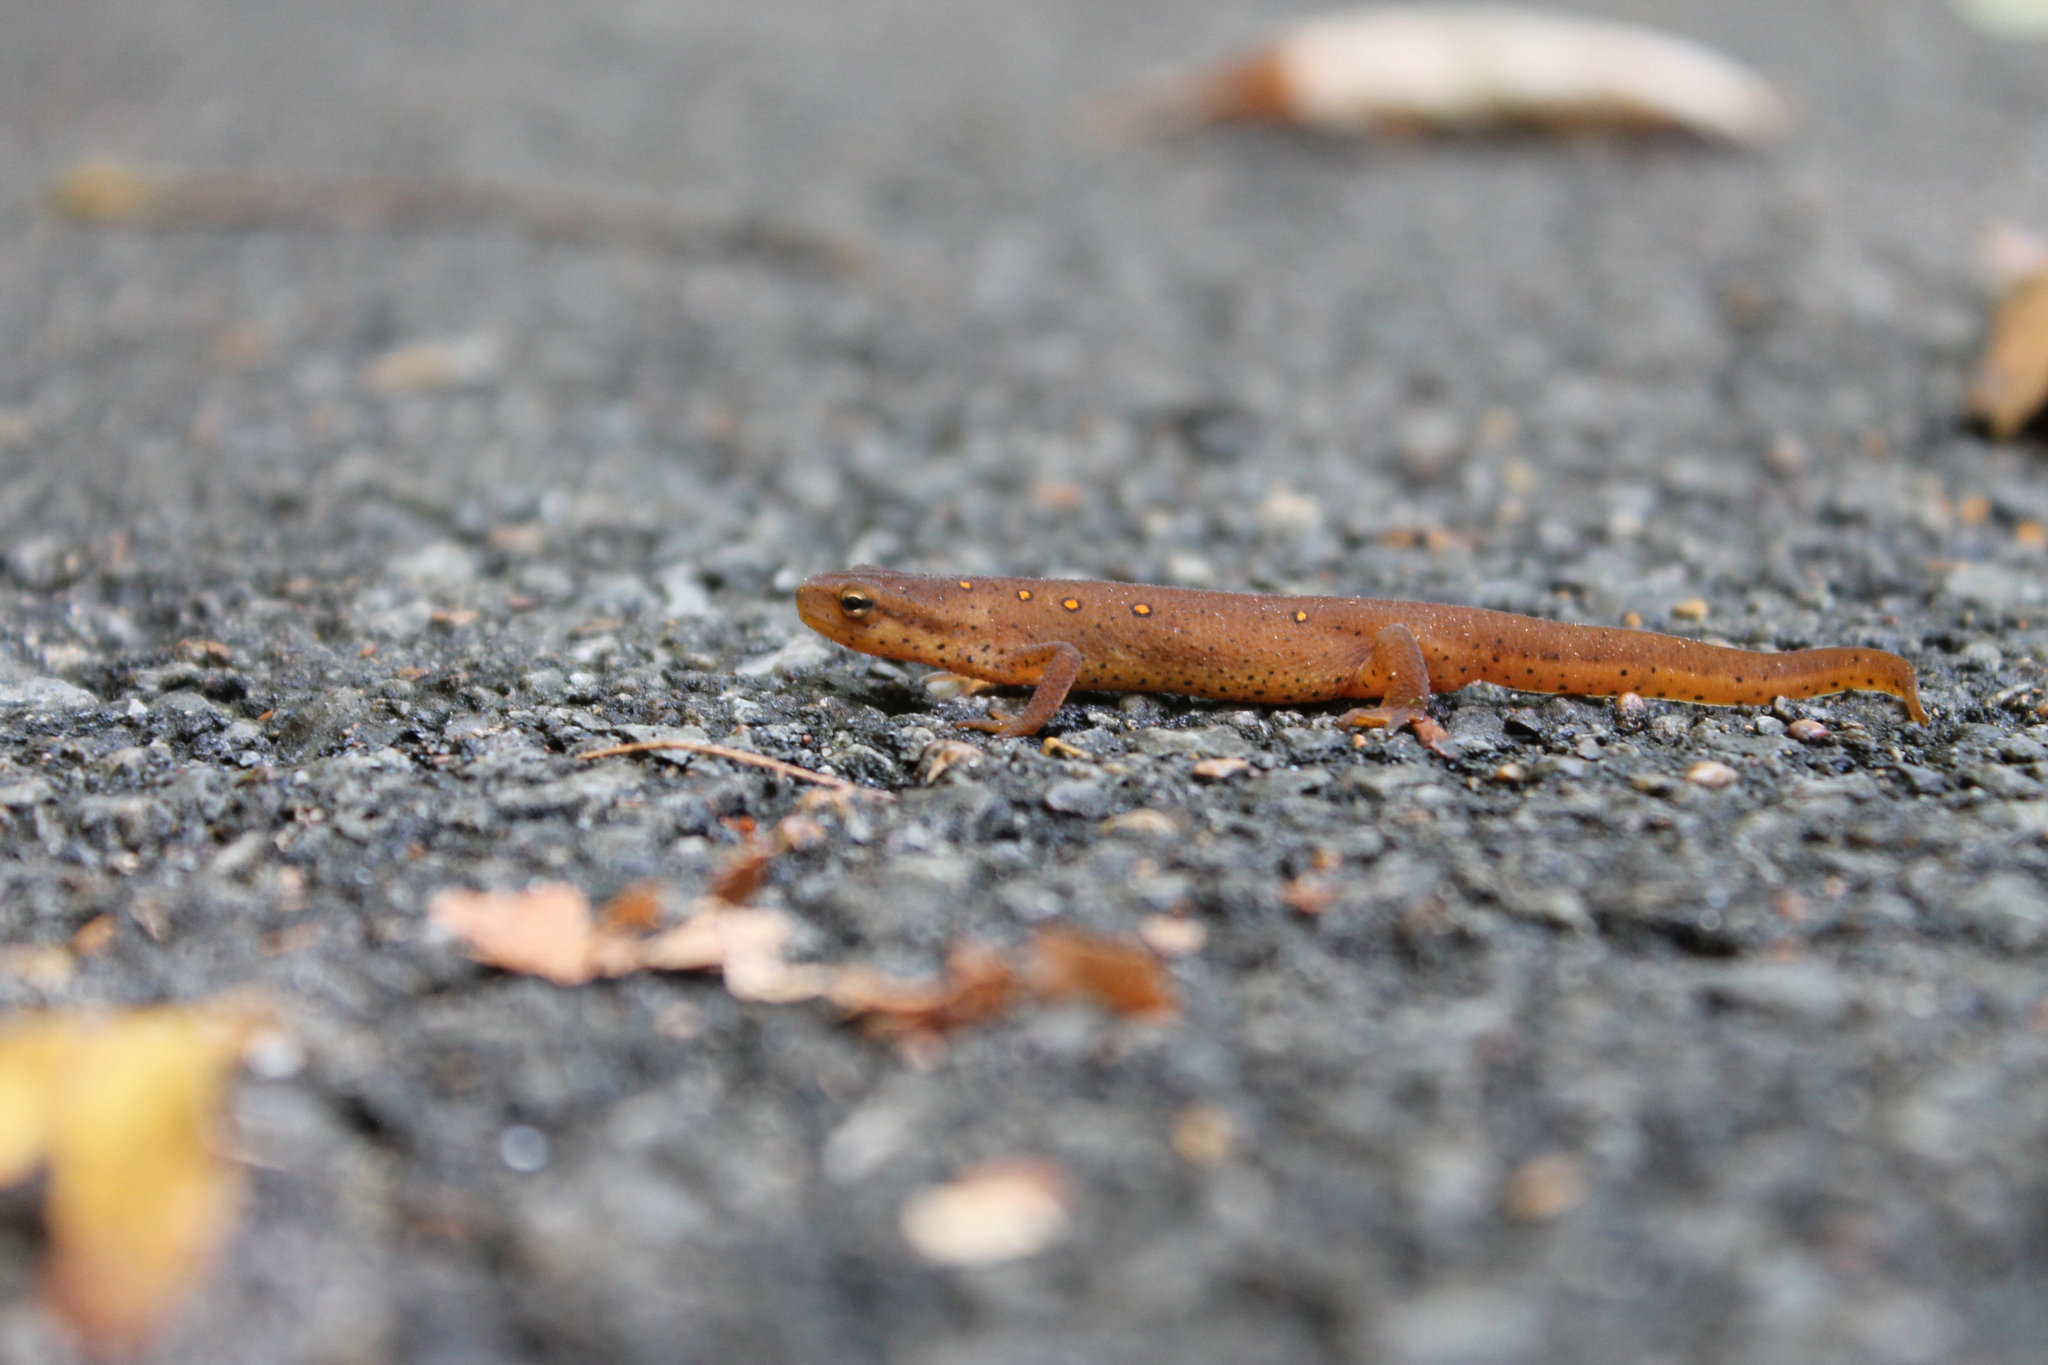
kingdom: Animalia
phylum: Chordata
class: Amphibia
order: Caudata
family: Salamandridae
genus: Notophthalmus
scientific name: Notophthalmus viridescens
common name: Eastern newt
